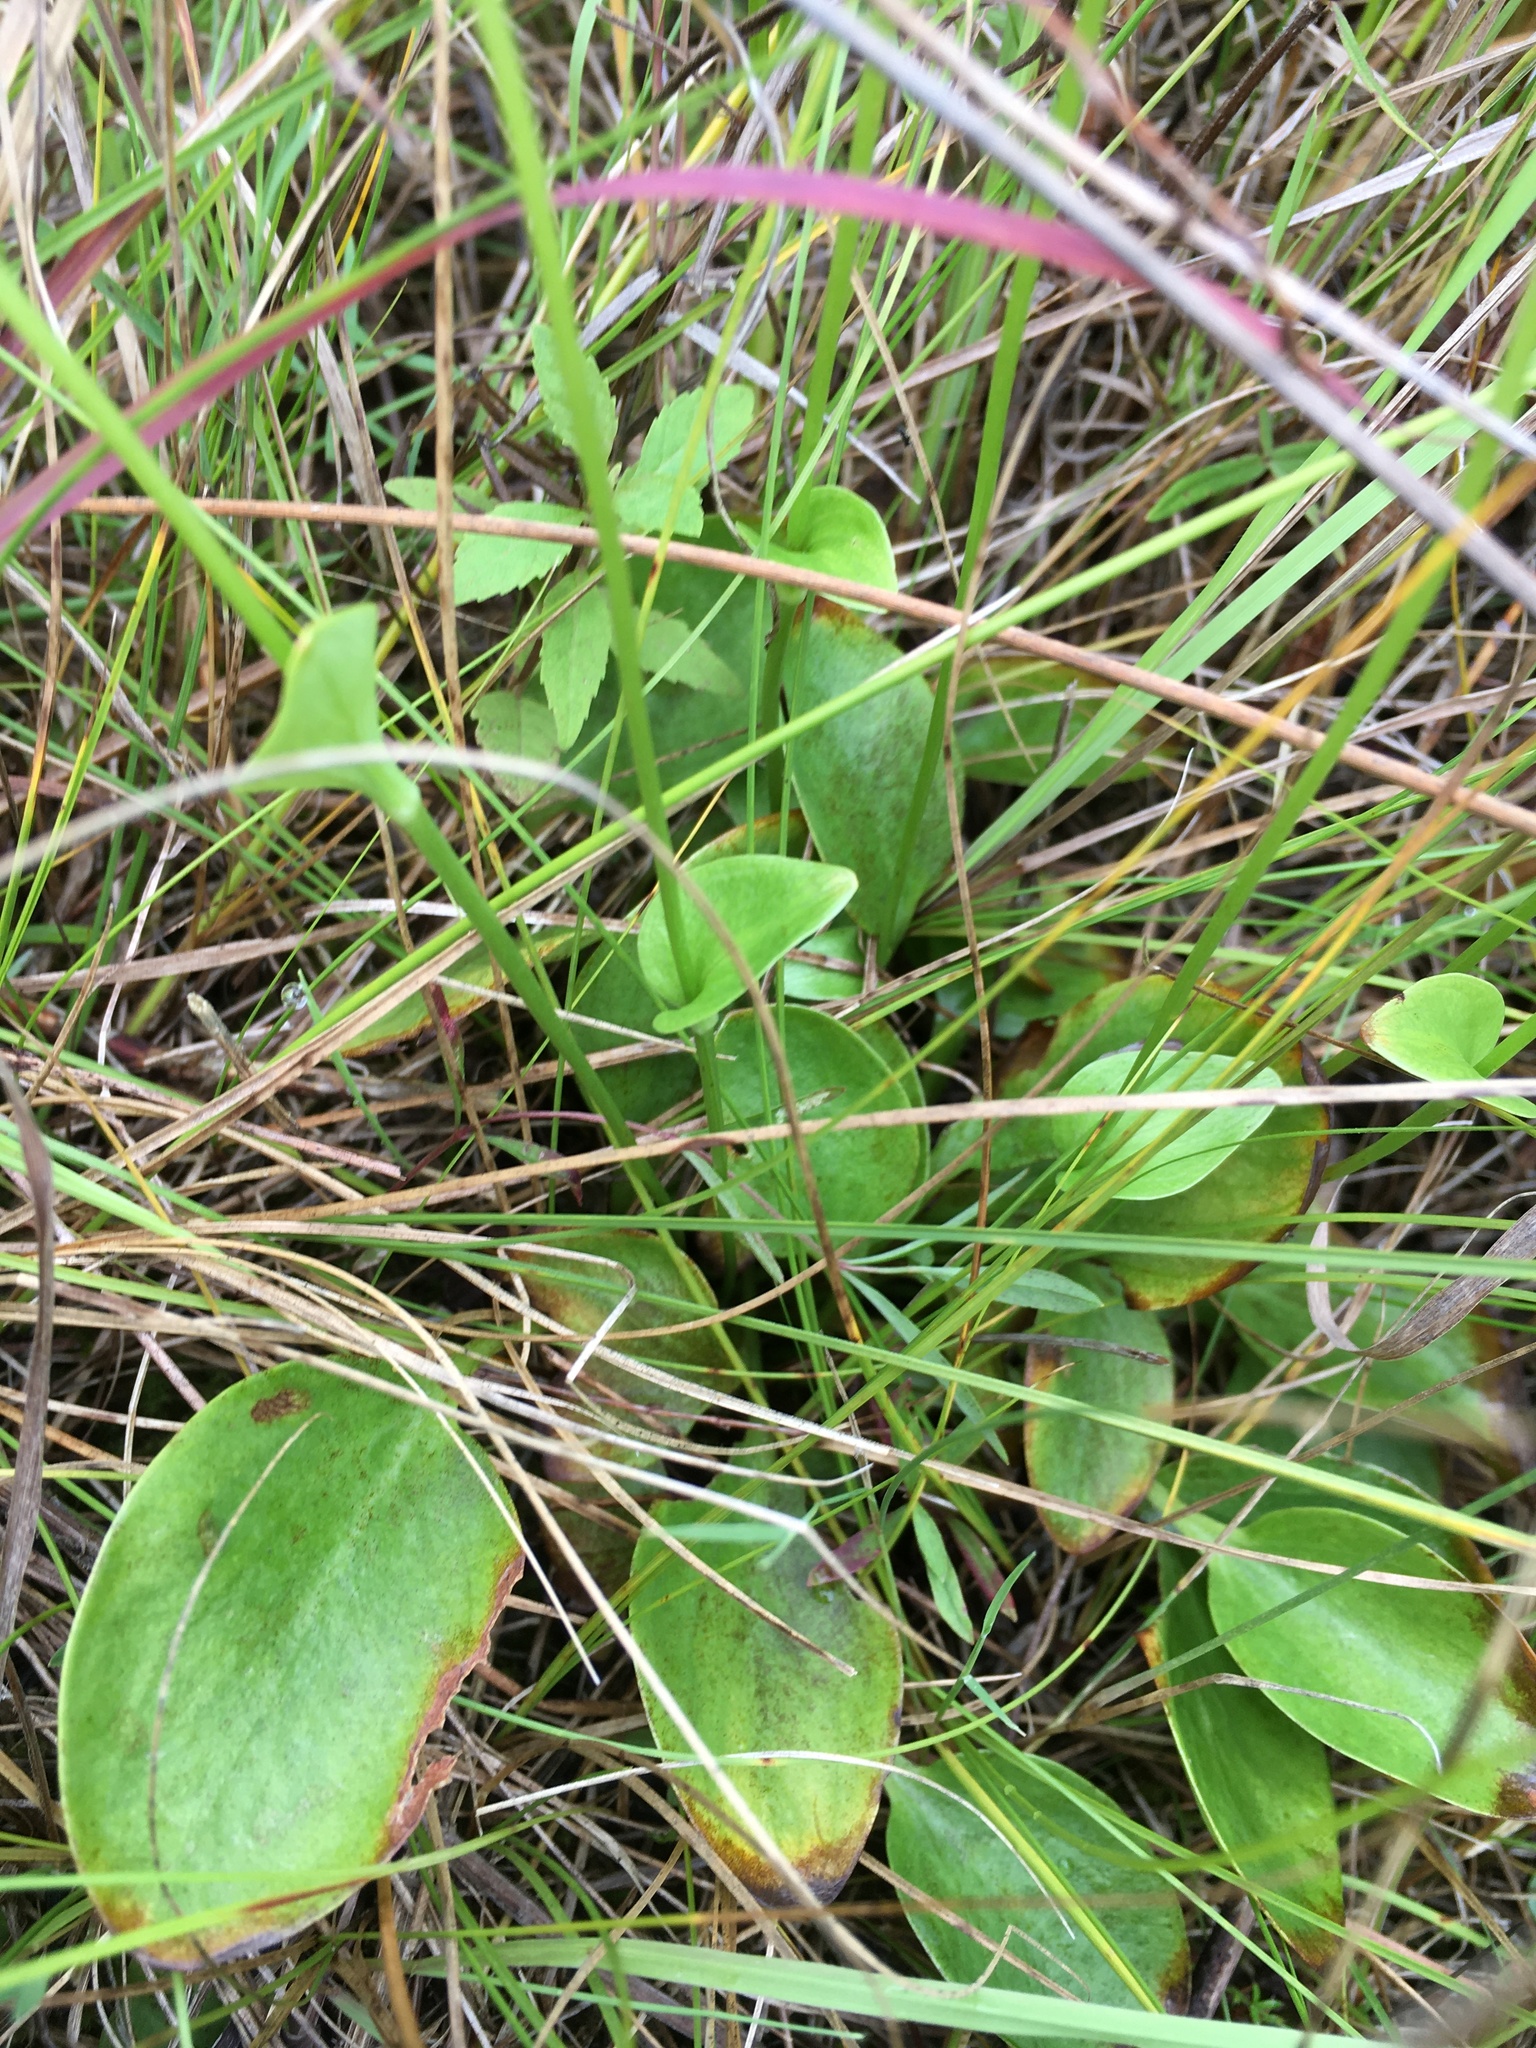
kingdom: Plantae
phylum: Tracheophyta
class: Magnoliopsida
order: Celastrales
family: Parnassiaceae
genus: Parnassia
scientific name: Parnassia glauca
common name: American grass-of-parnassus
